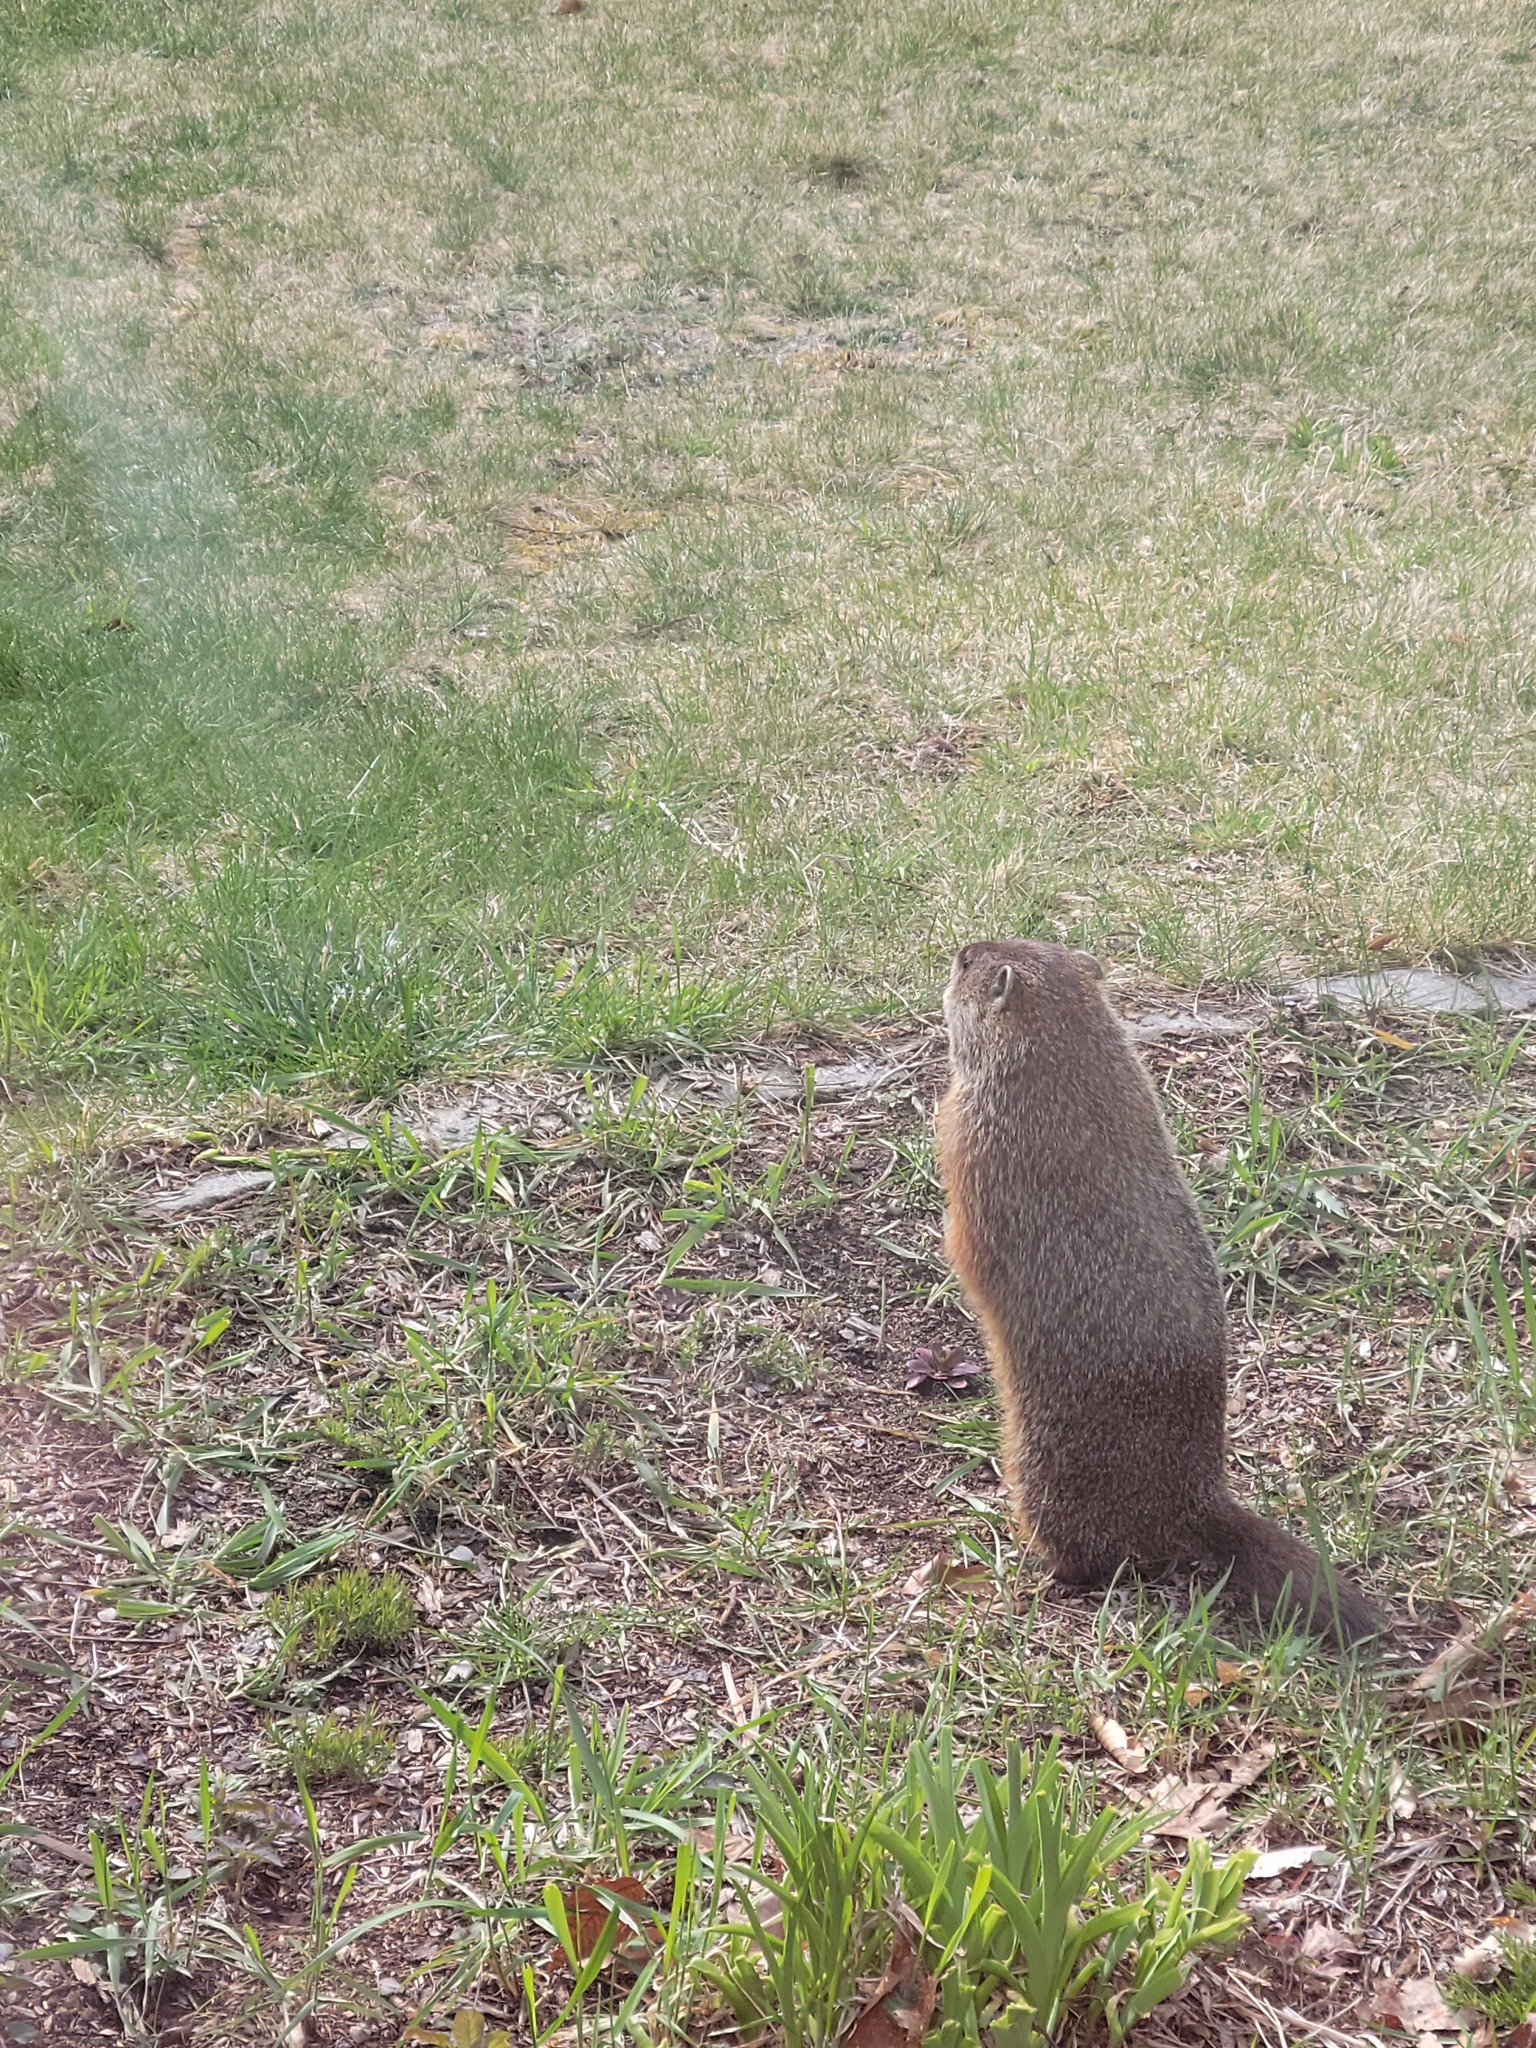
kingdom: Animalia
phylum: Chordata
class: Mammalia
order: Rodentia
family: Sciuridae
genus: Marmota
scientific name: Marmota monax
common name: Groundhog
